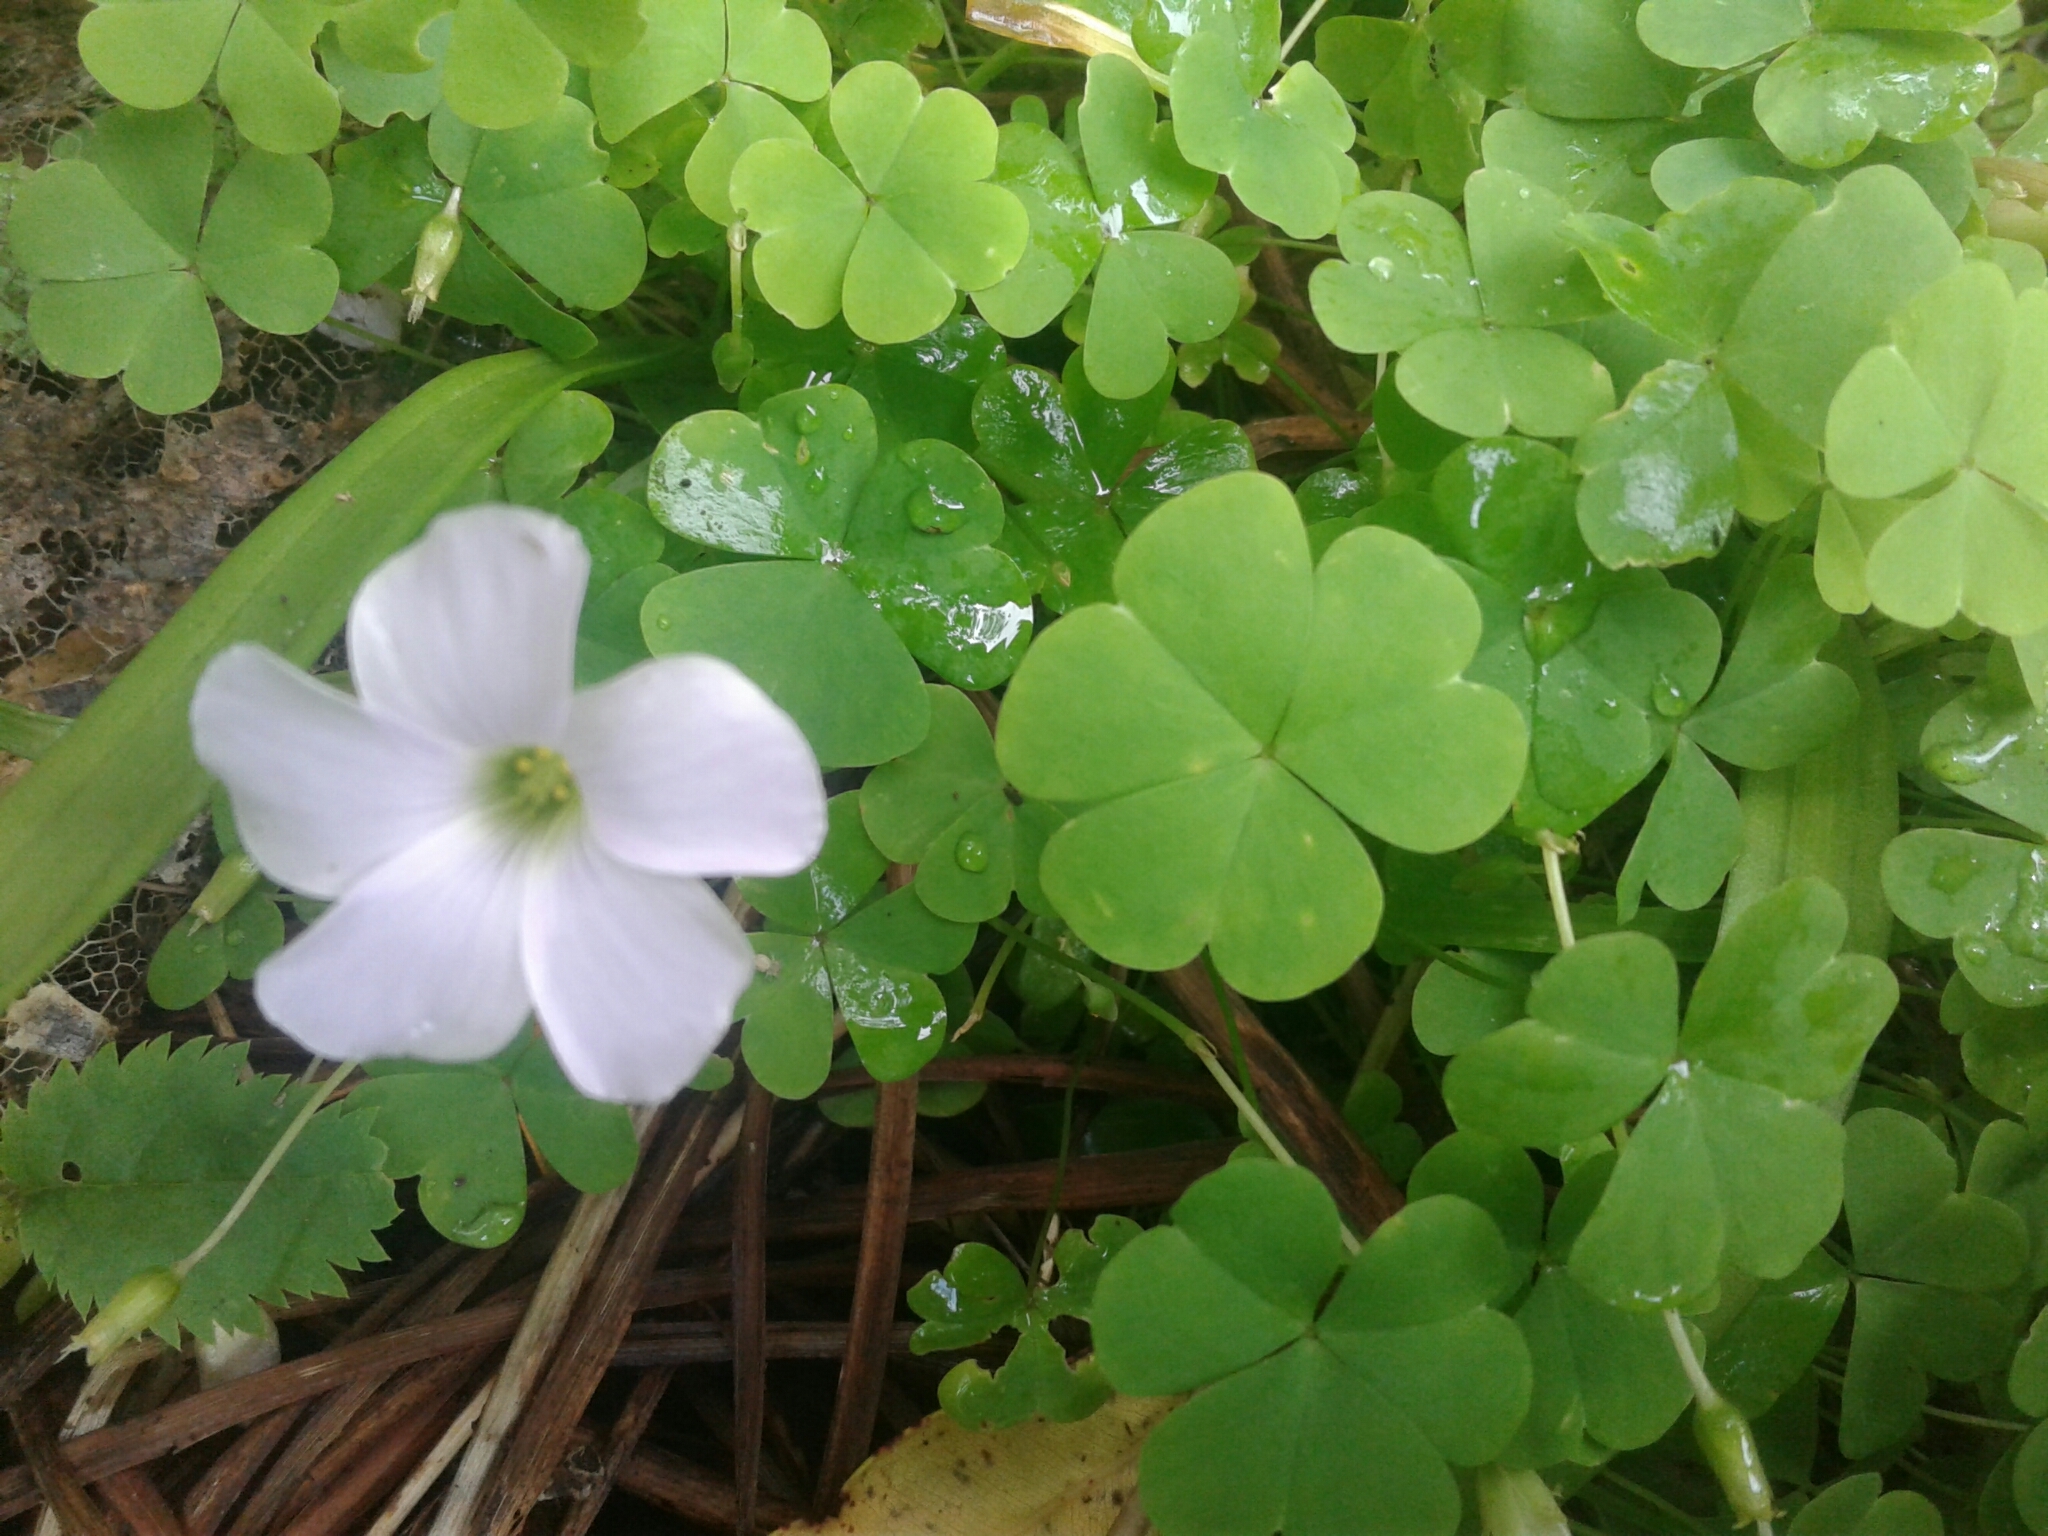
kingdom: Plantae
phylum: Tracheophyta
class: Magnoliopsida
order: Oxalidales
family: Oxalidaceae
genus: Oxalis
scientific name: Oxalis incarnata
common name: Pale pink-sorrel
